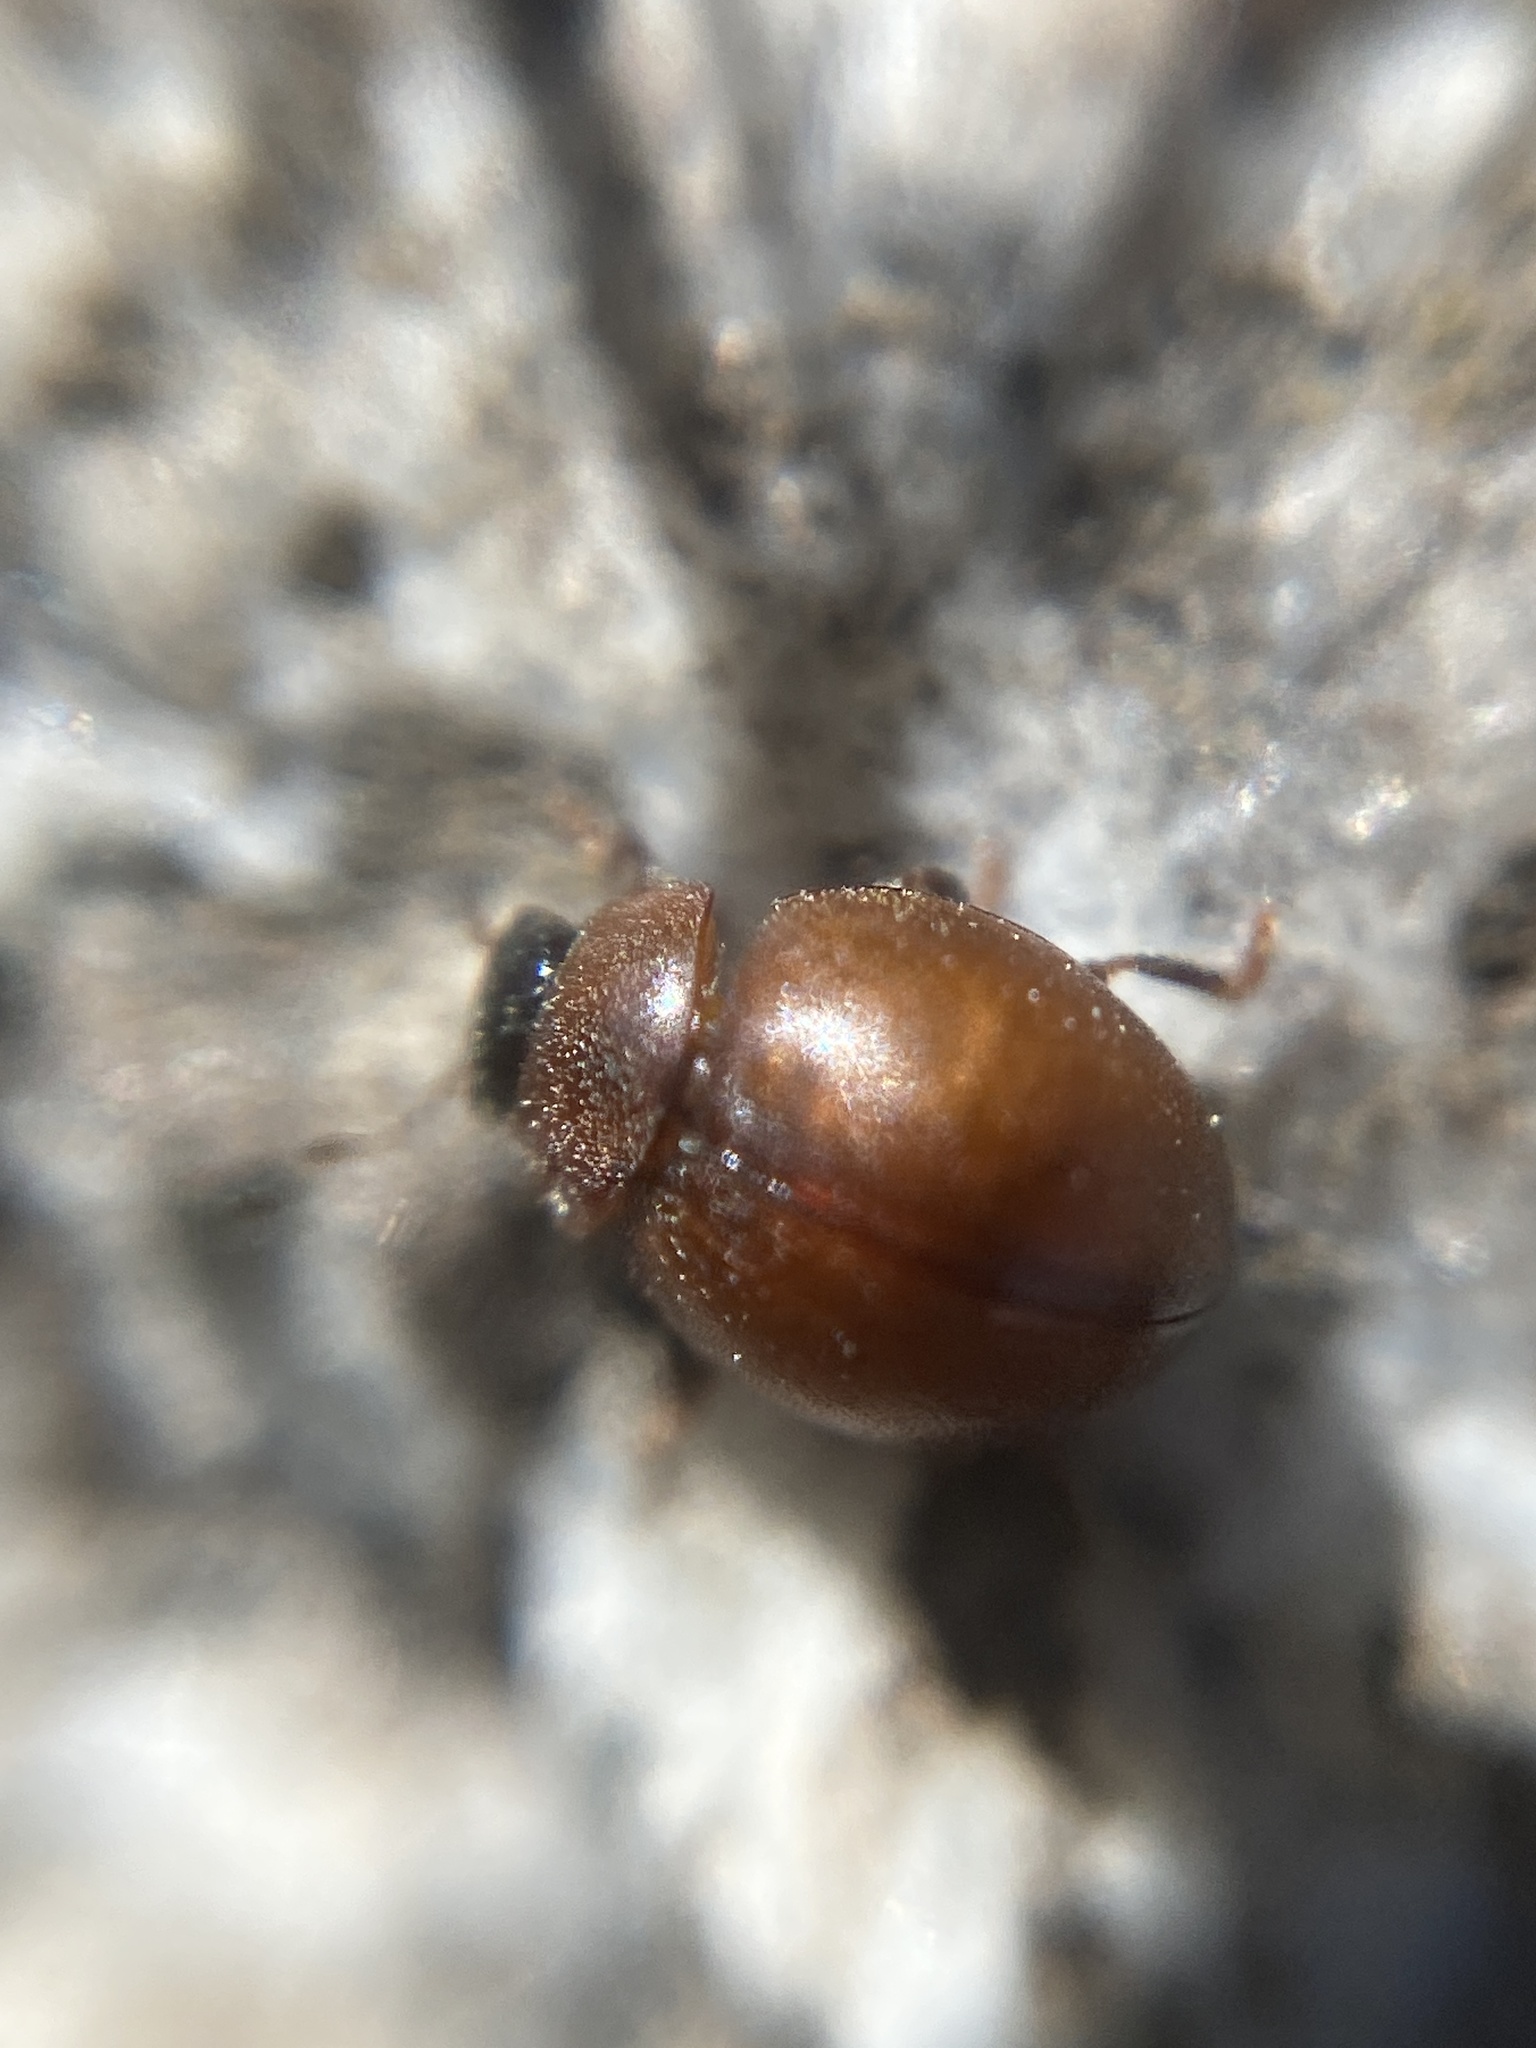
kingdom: Animalia
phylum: Arthropoda
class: Insecta
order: Coleoptera
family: Coccinellidae
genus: Cynegetis
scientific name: Cynegetis impunctata
